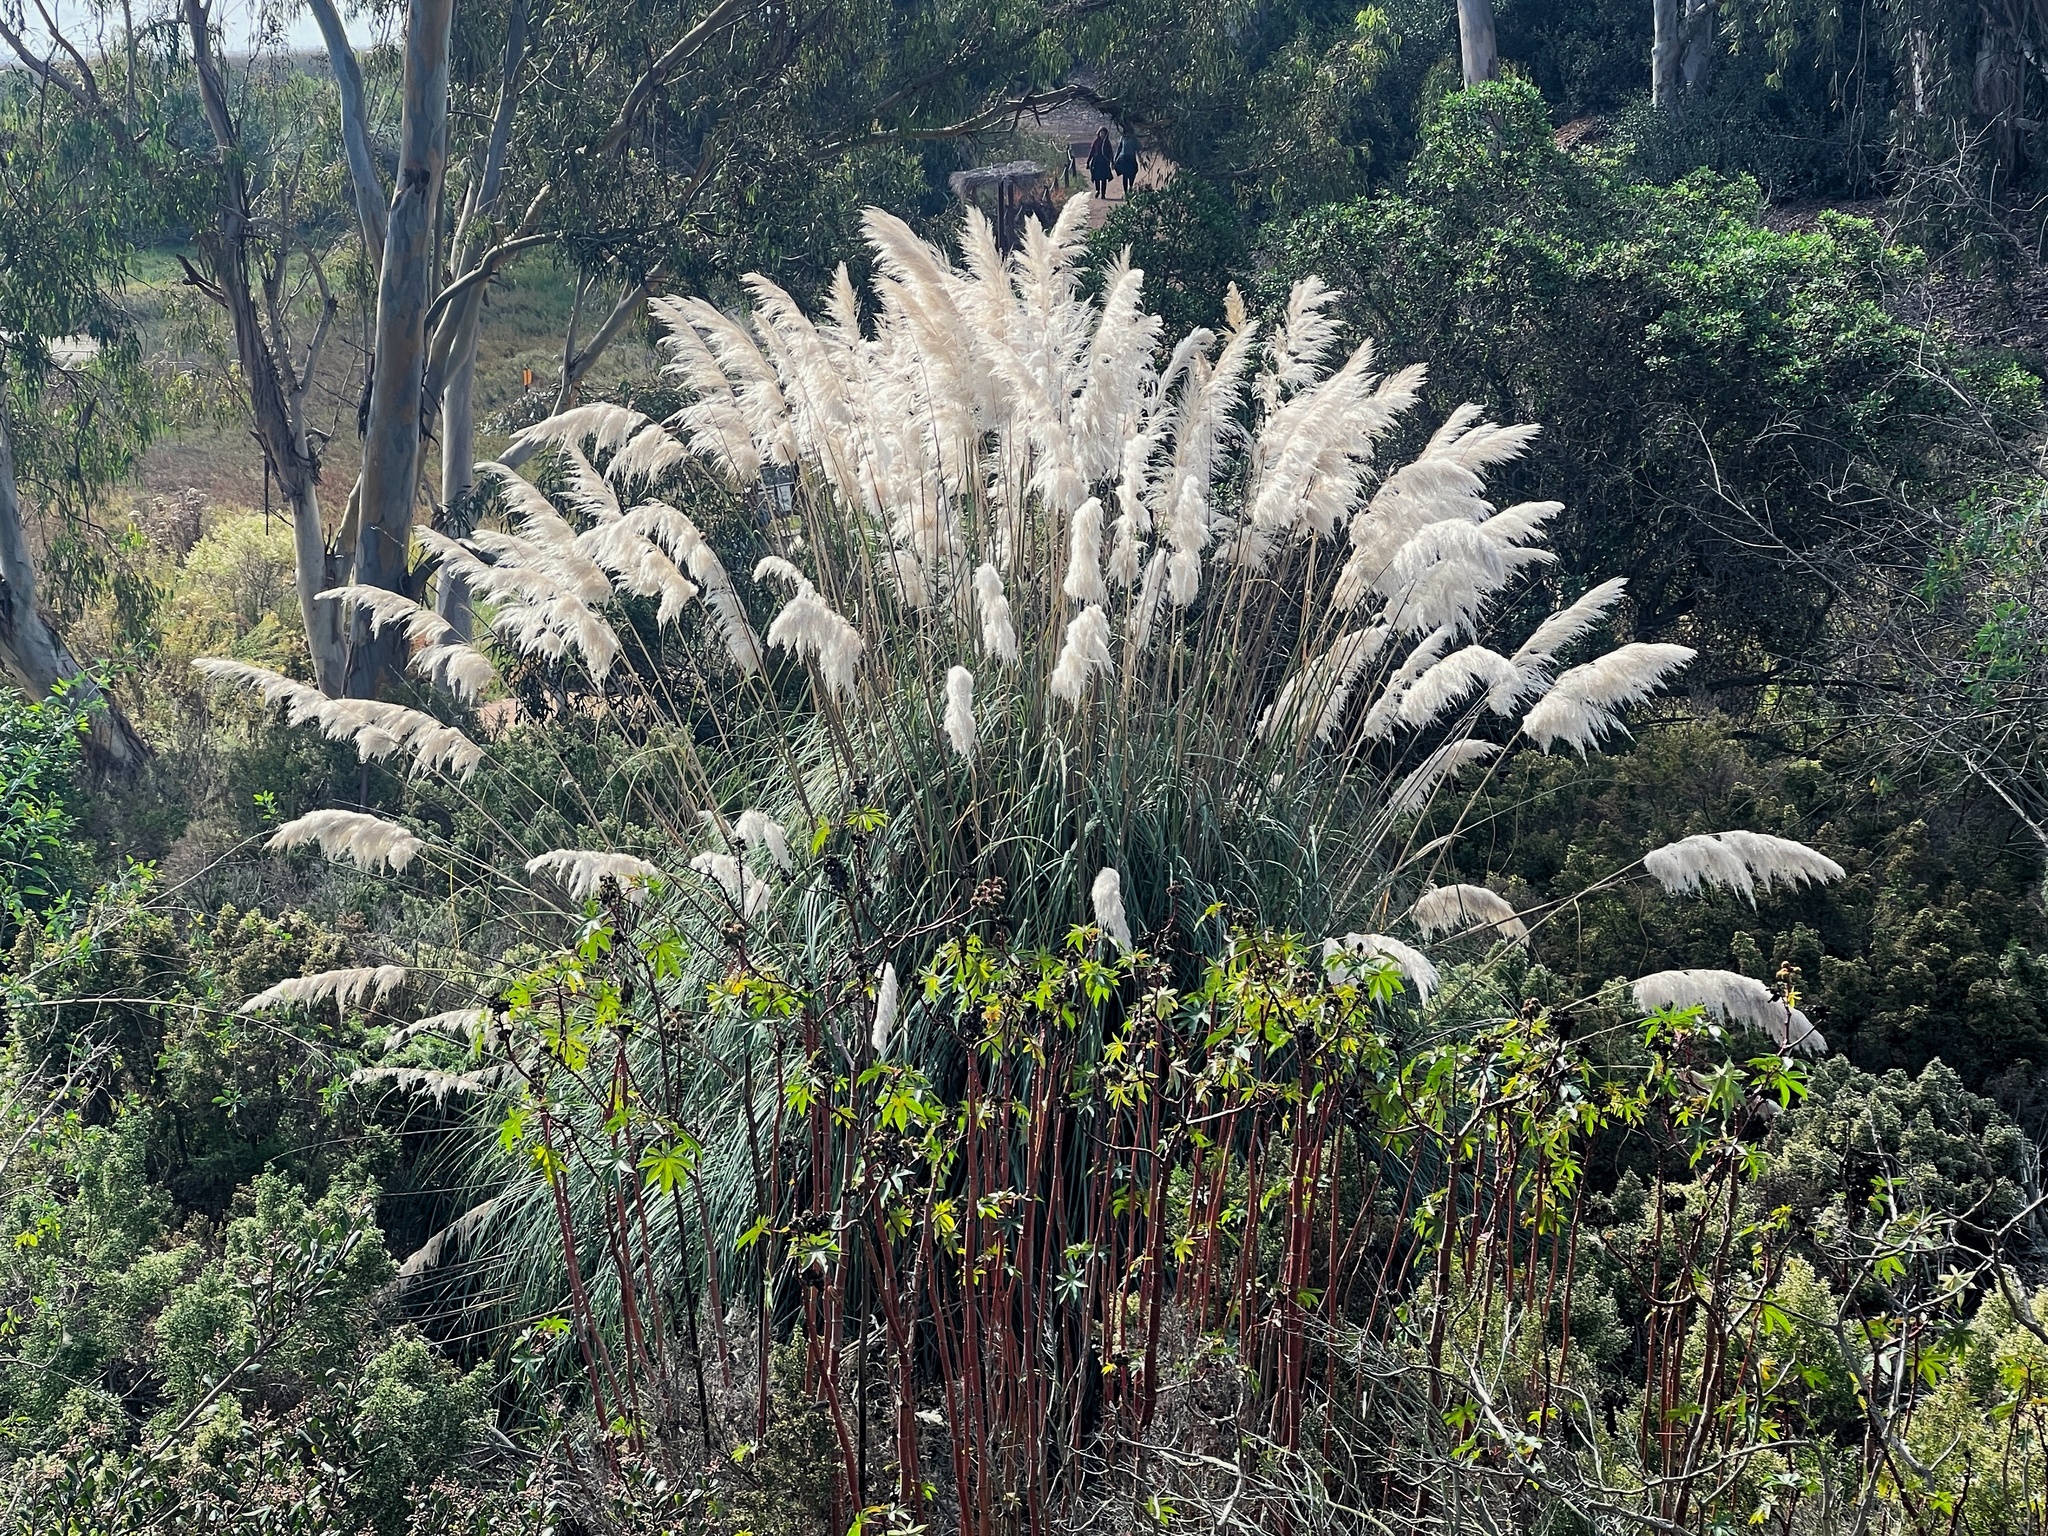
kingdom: Plantae
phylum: Tracheophyta
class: Liliopsida
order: Poales
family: Poaceae
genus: Cortaderia
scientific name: Cortaderia selloana
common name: Uruguayan pampas grass
